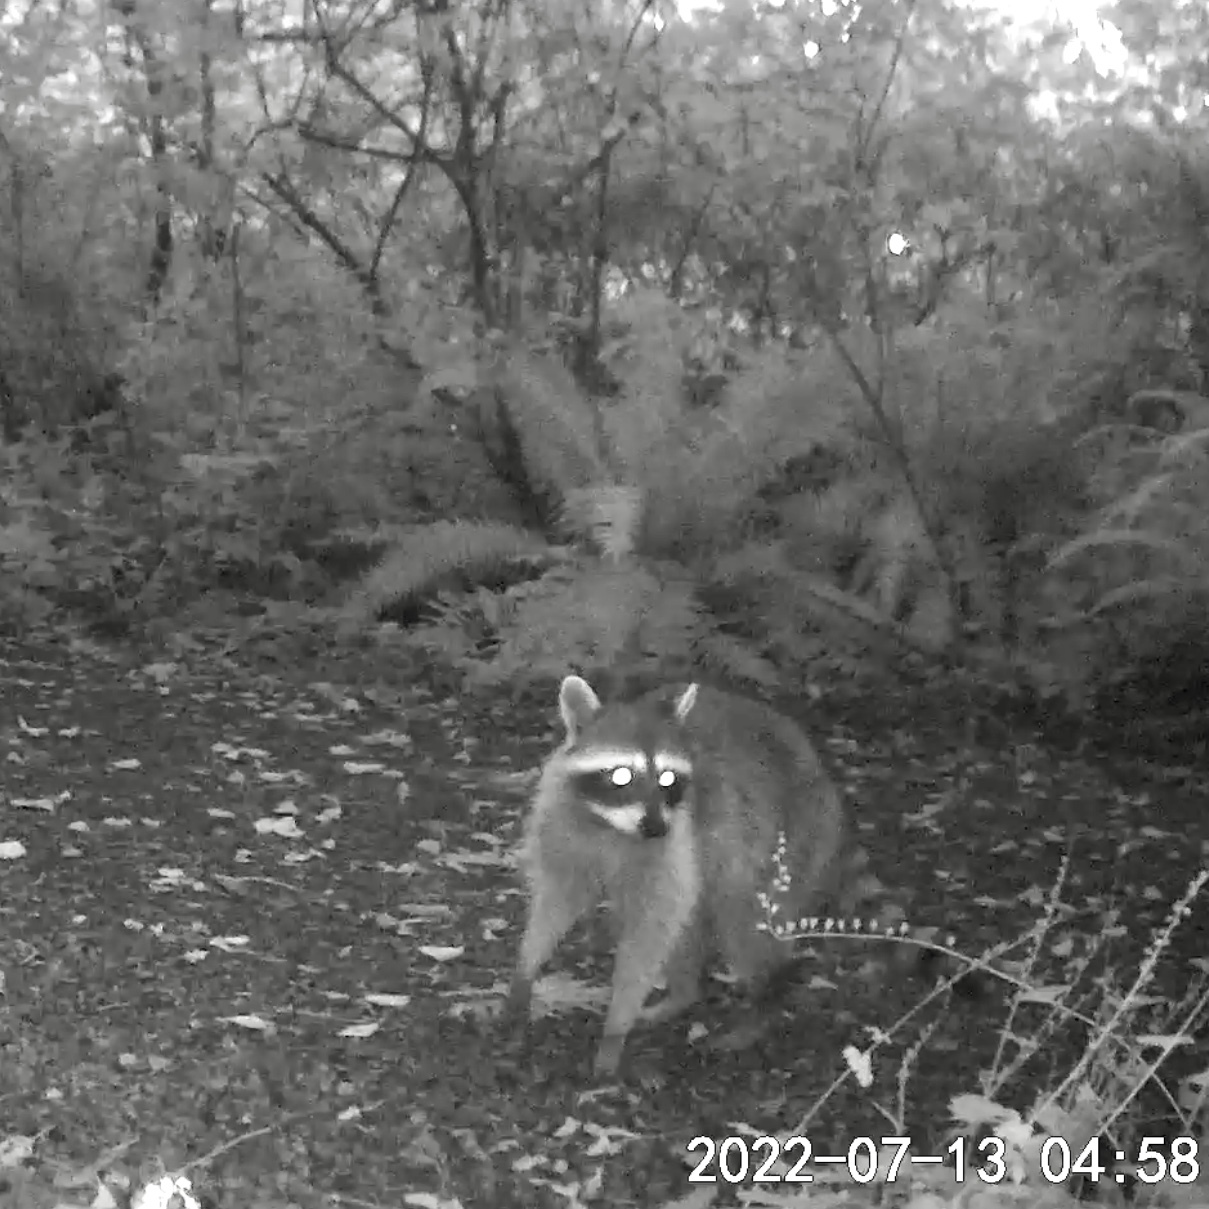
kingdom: Animalia
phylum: Chordata
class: Mammalia
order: Carnivora
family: Procyonidae
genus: Procyon
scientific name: Procyon lotor
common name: Raccoon
